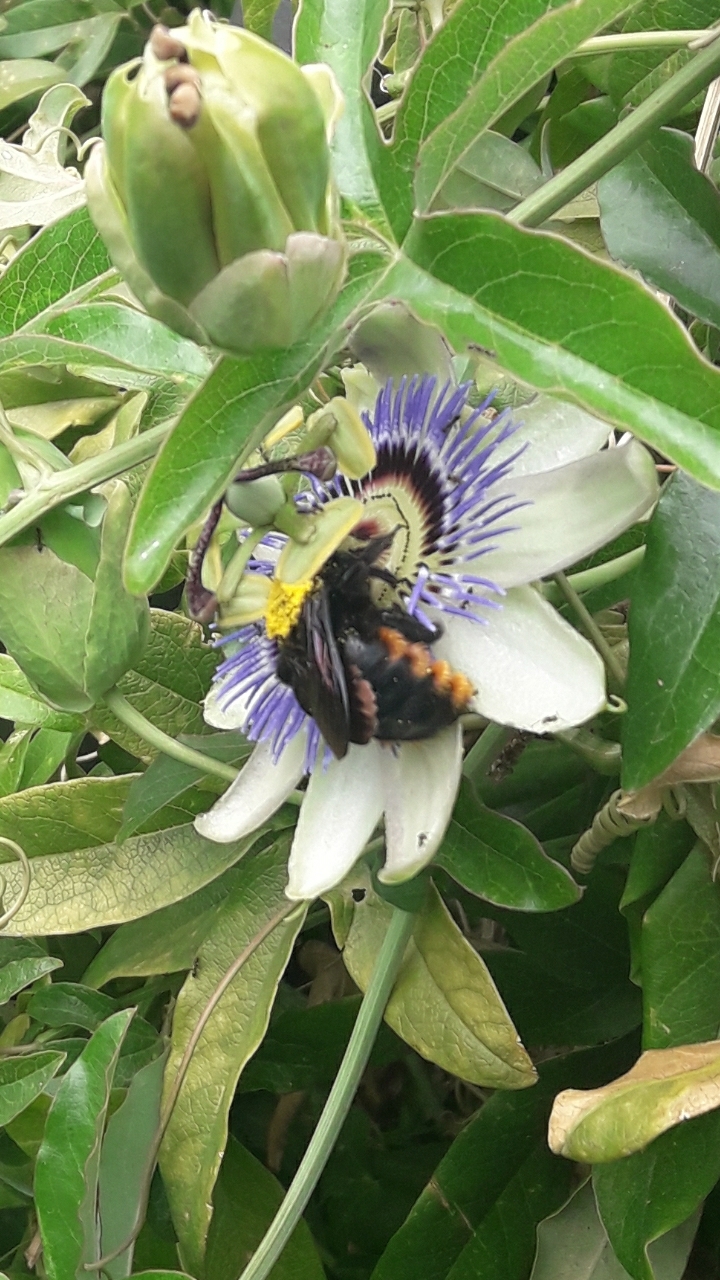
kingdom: Animalia
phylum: Arthropoda
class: Insecta
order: Hymenoptera
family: Apidae
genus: Xylocopa
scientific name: Xylocopa augusti
